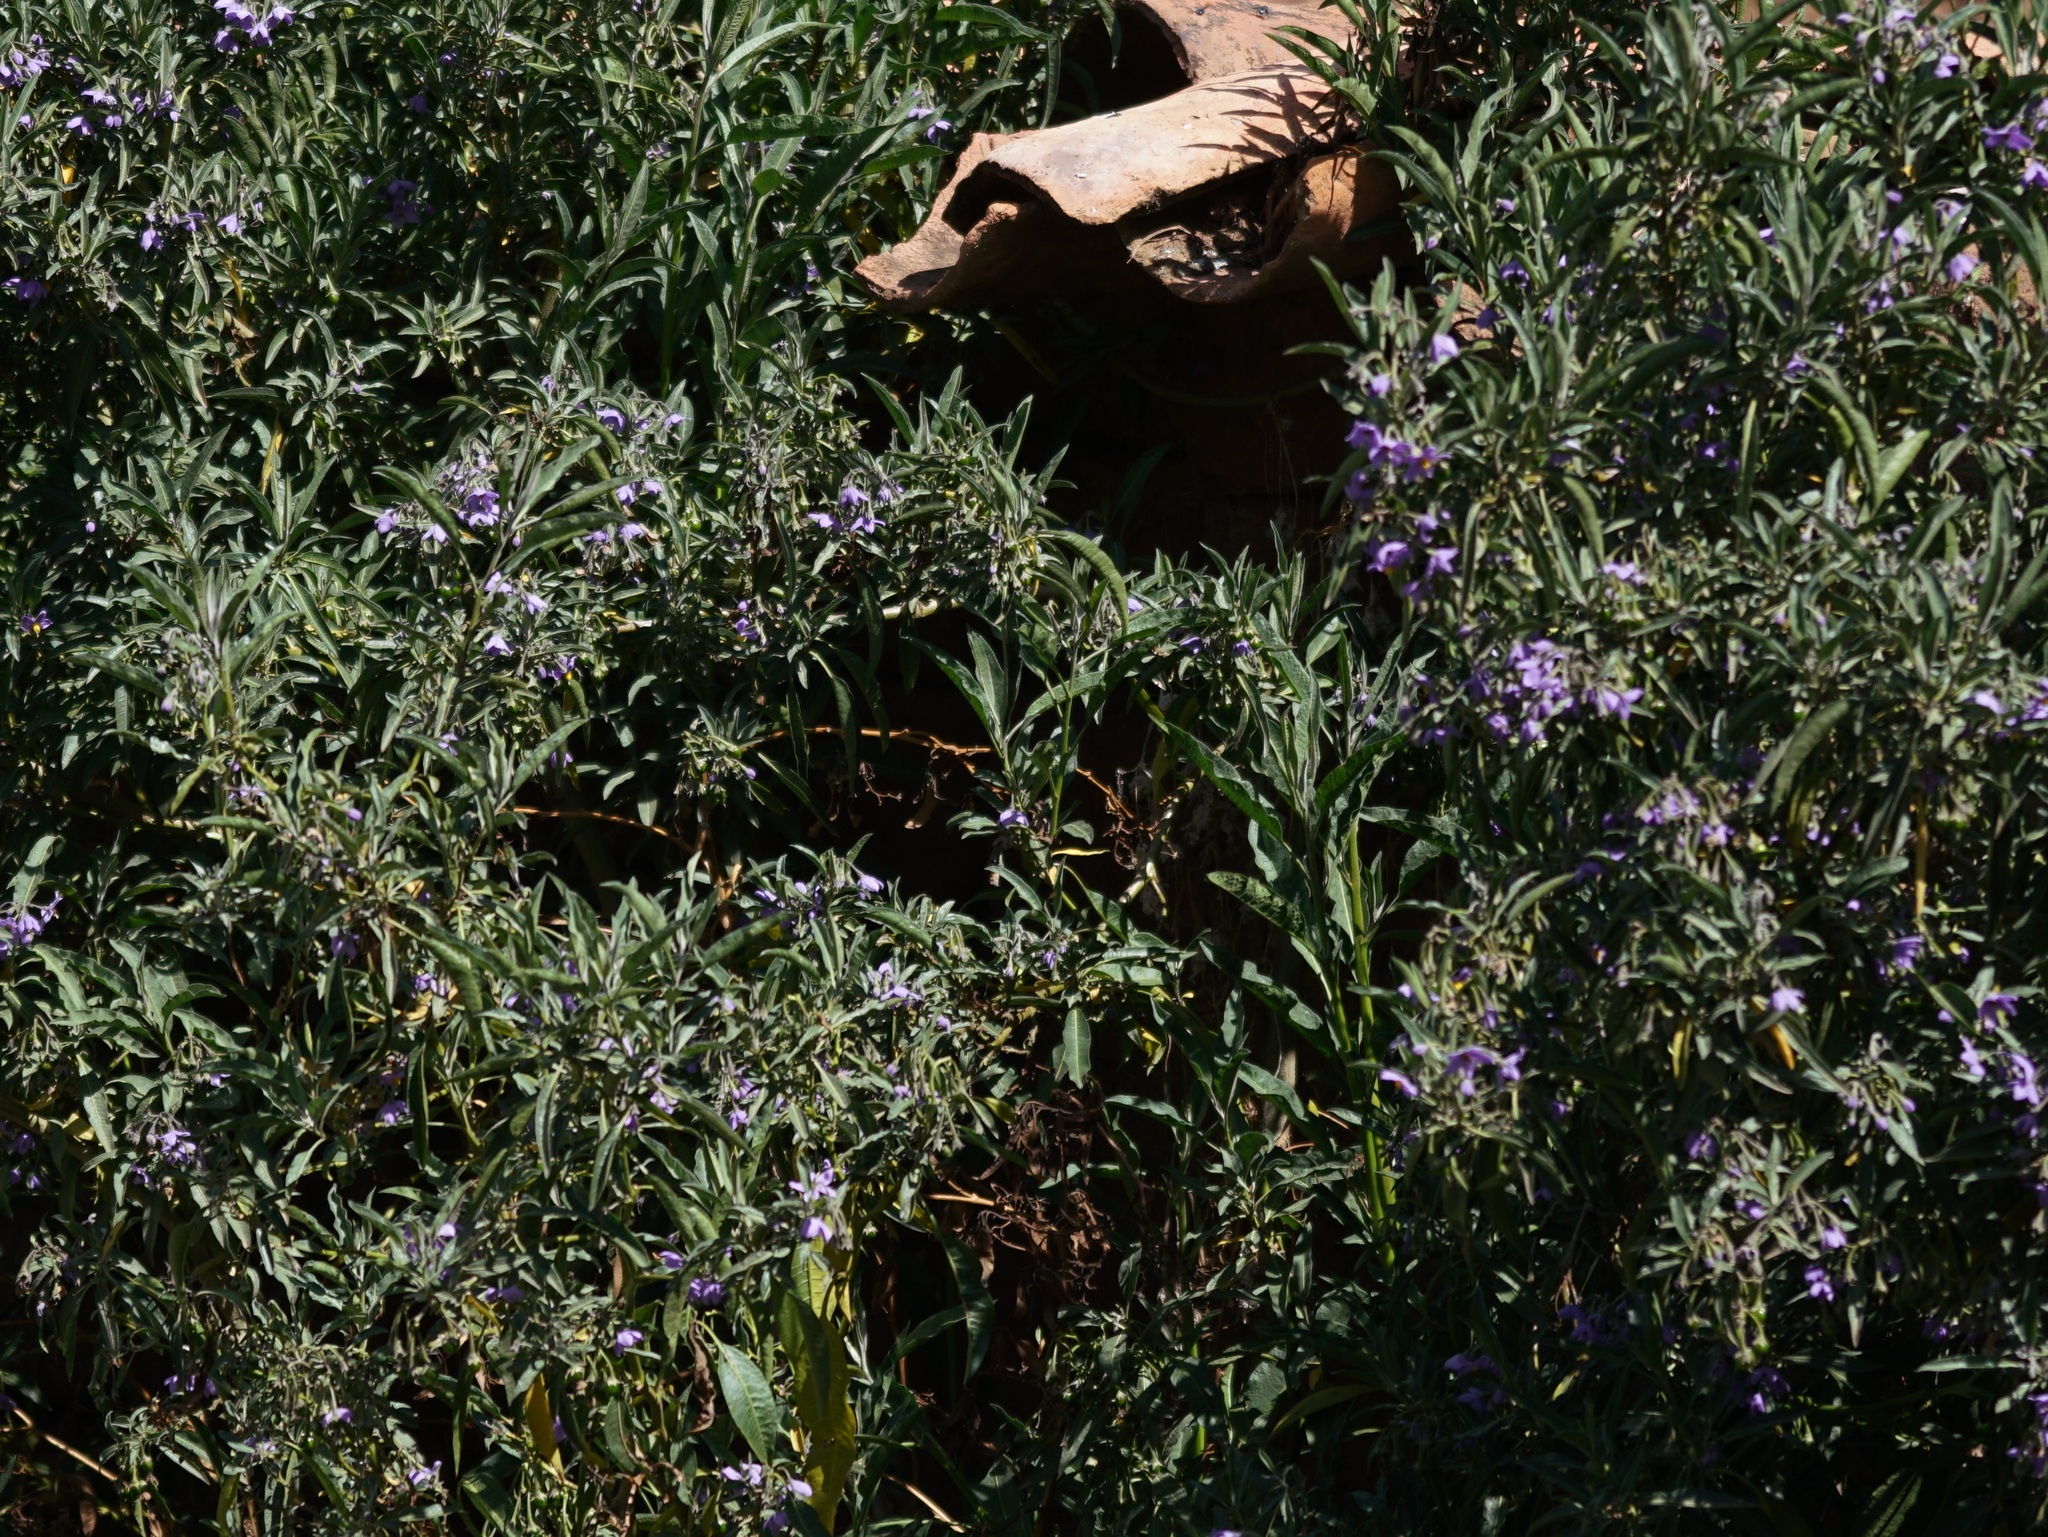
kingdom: Plantae
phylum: Tracheophyta
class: Magnoliopsida
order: Solanales
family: Solanaceae
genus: Solanum
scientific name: Solanum nitidum
